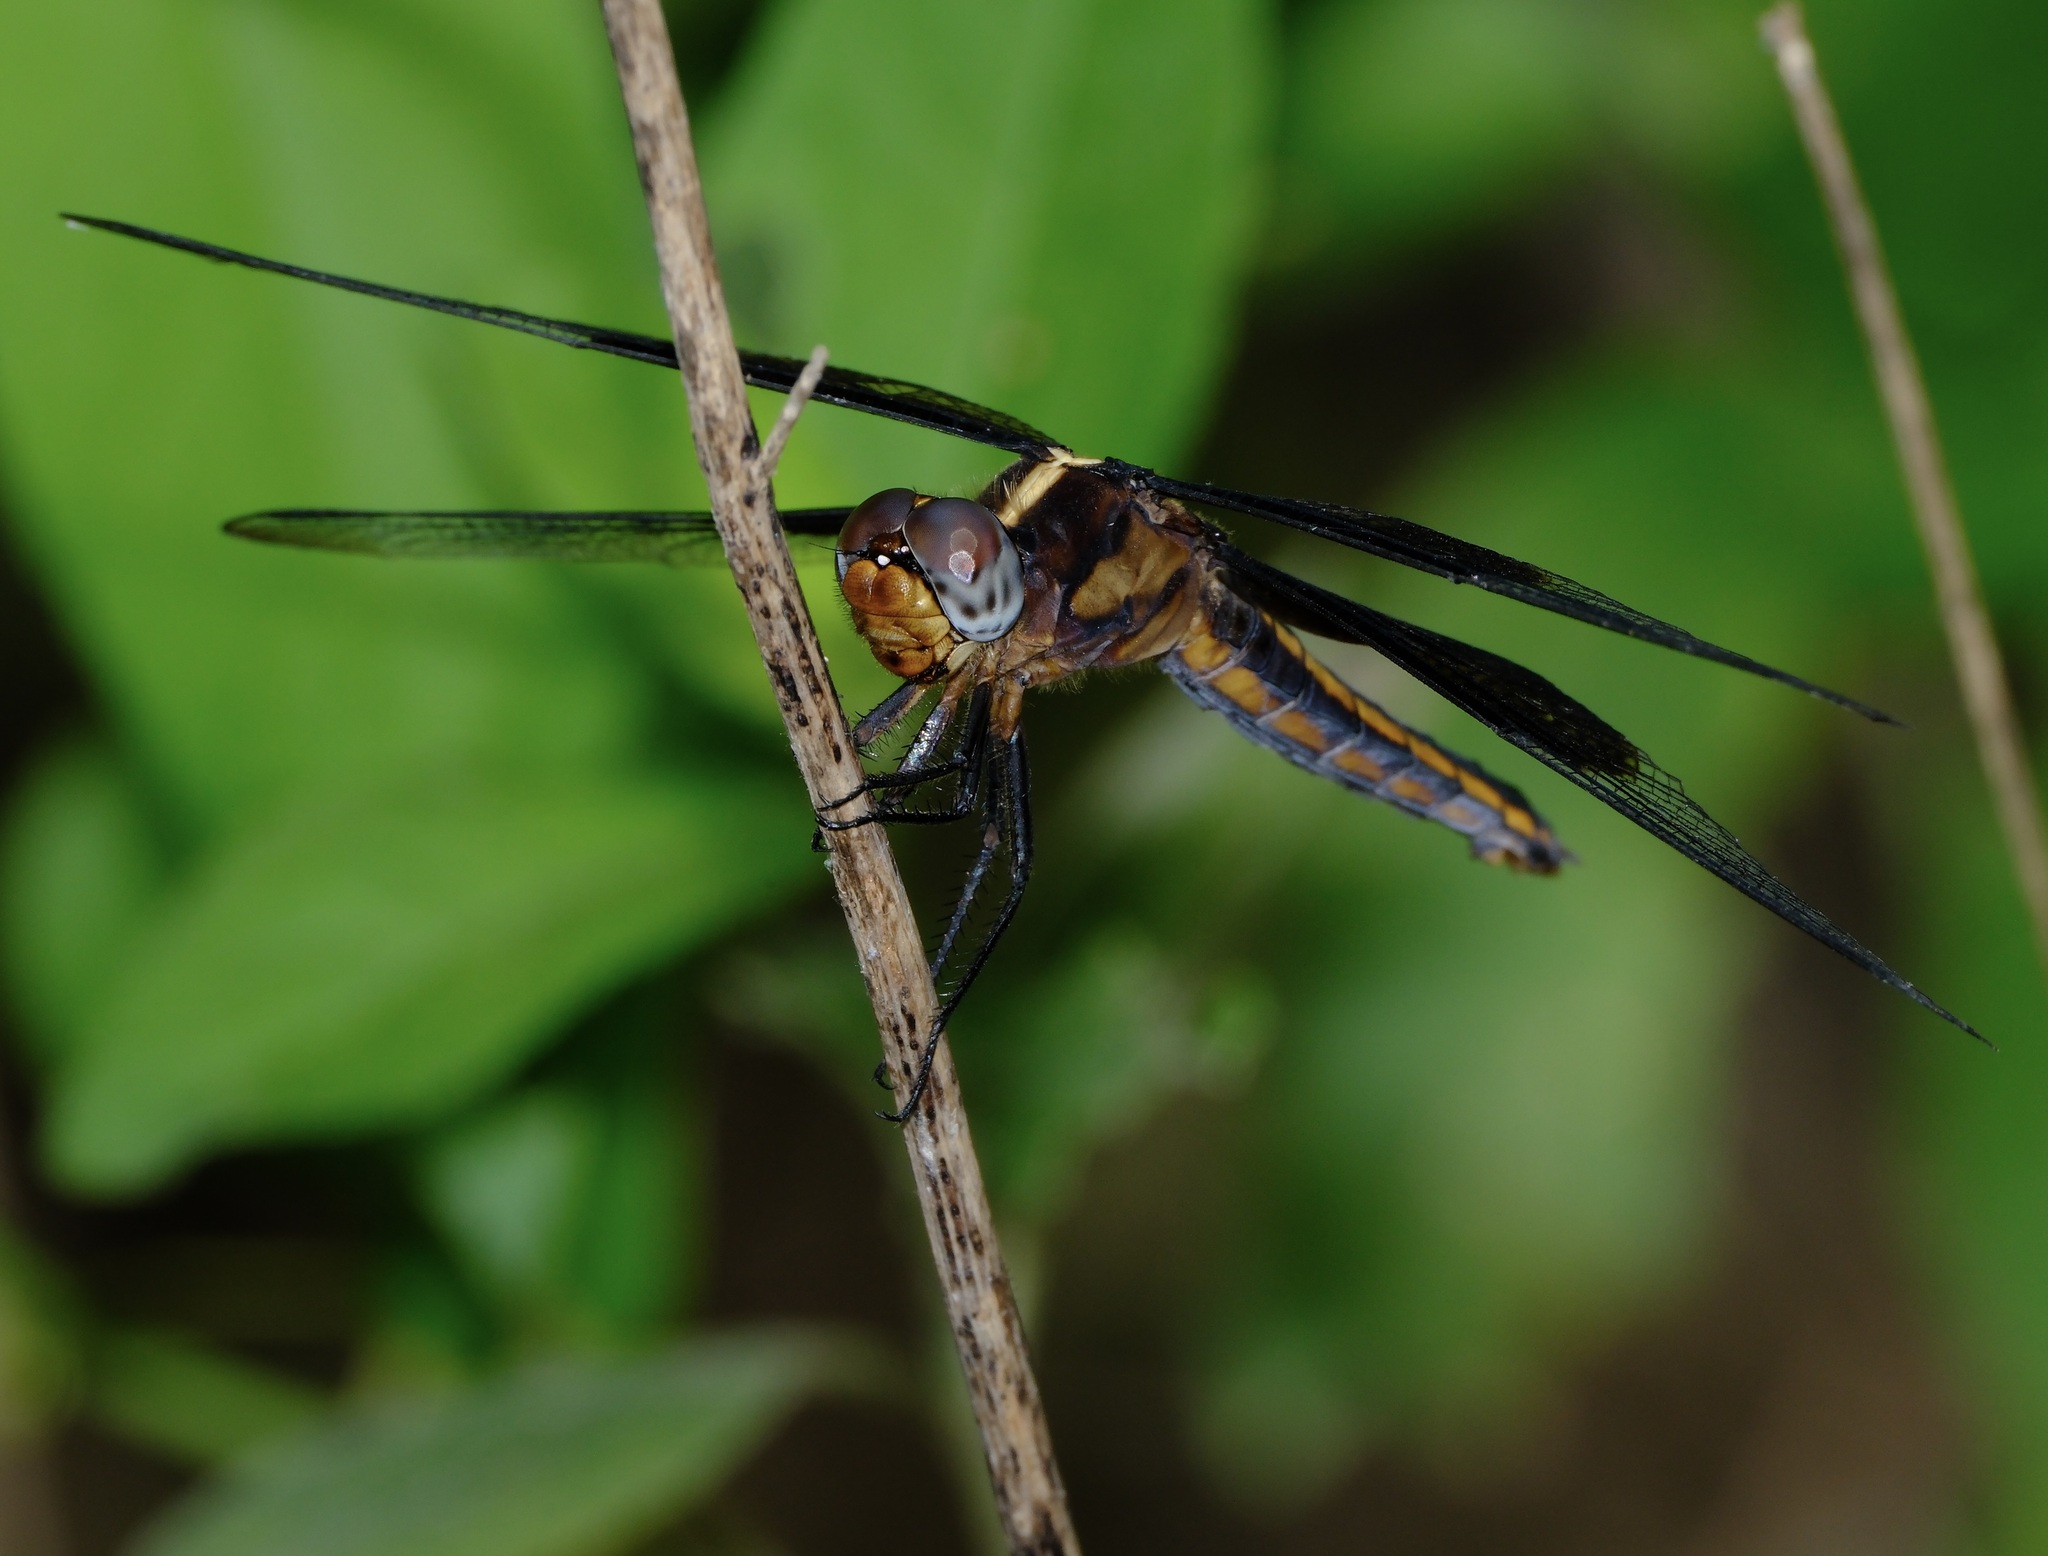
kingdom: Animalia
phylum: Arthropoda
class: Insecta
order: Odonata
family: Libellulidae
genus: Libellula
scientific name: Libellula luctuosa
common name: Widow skimmer
